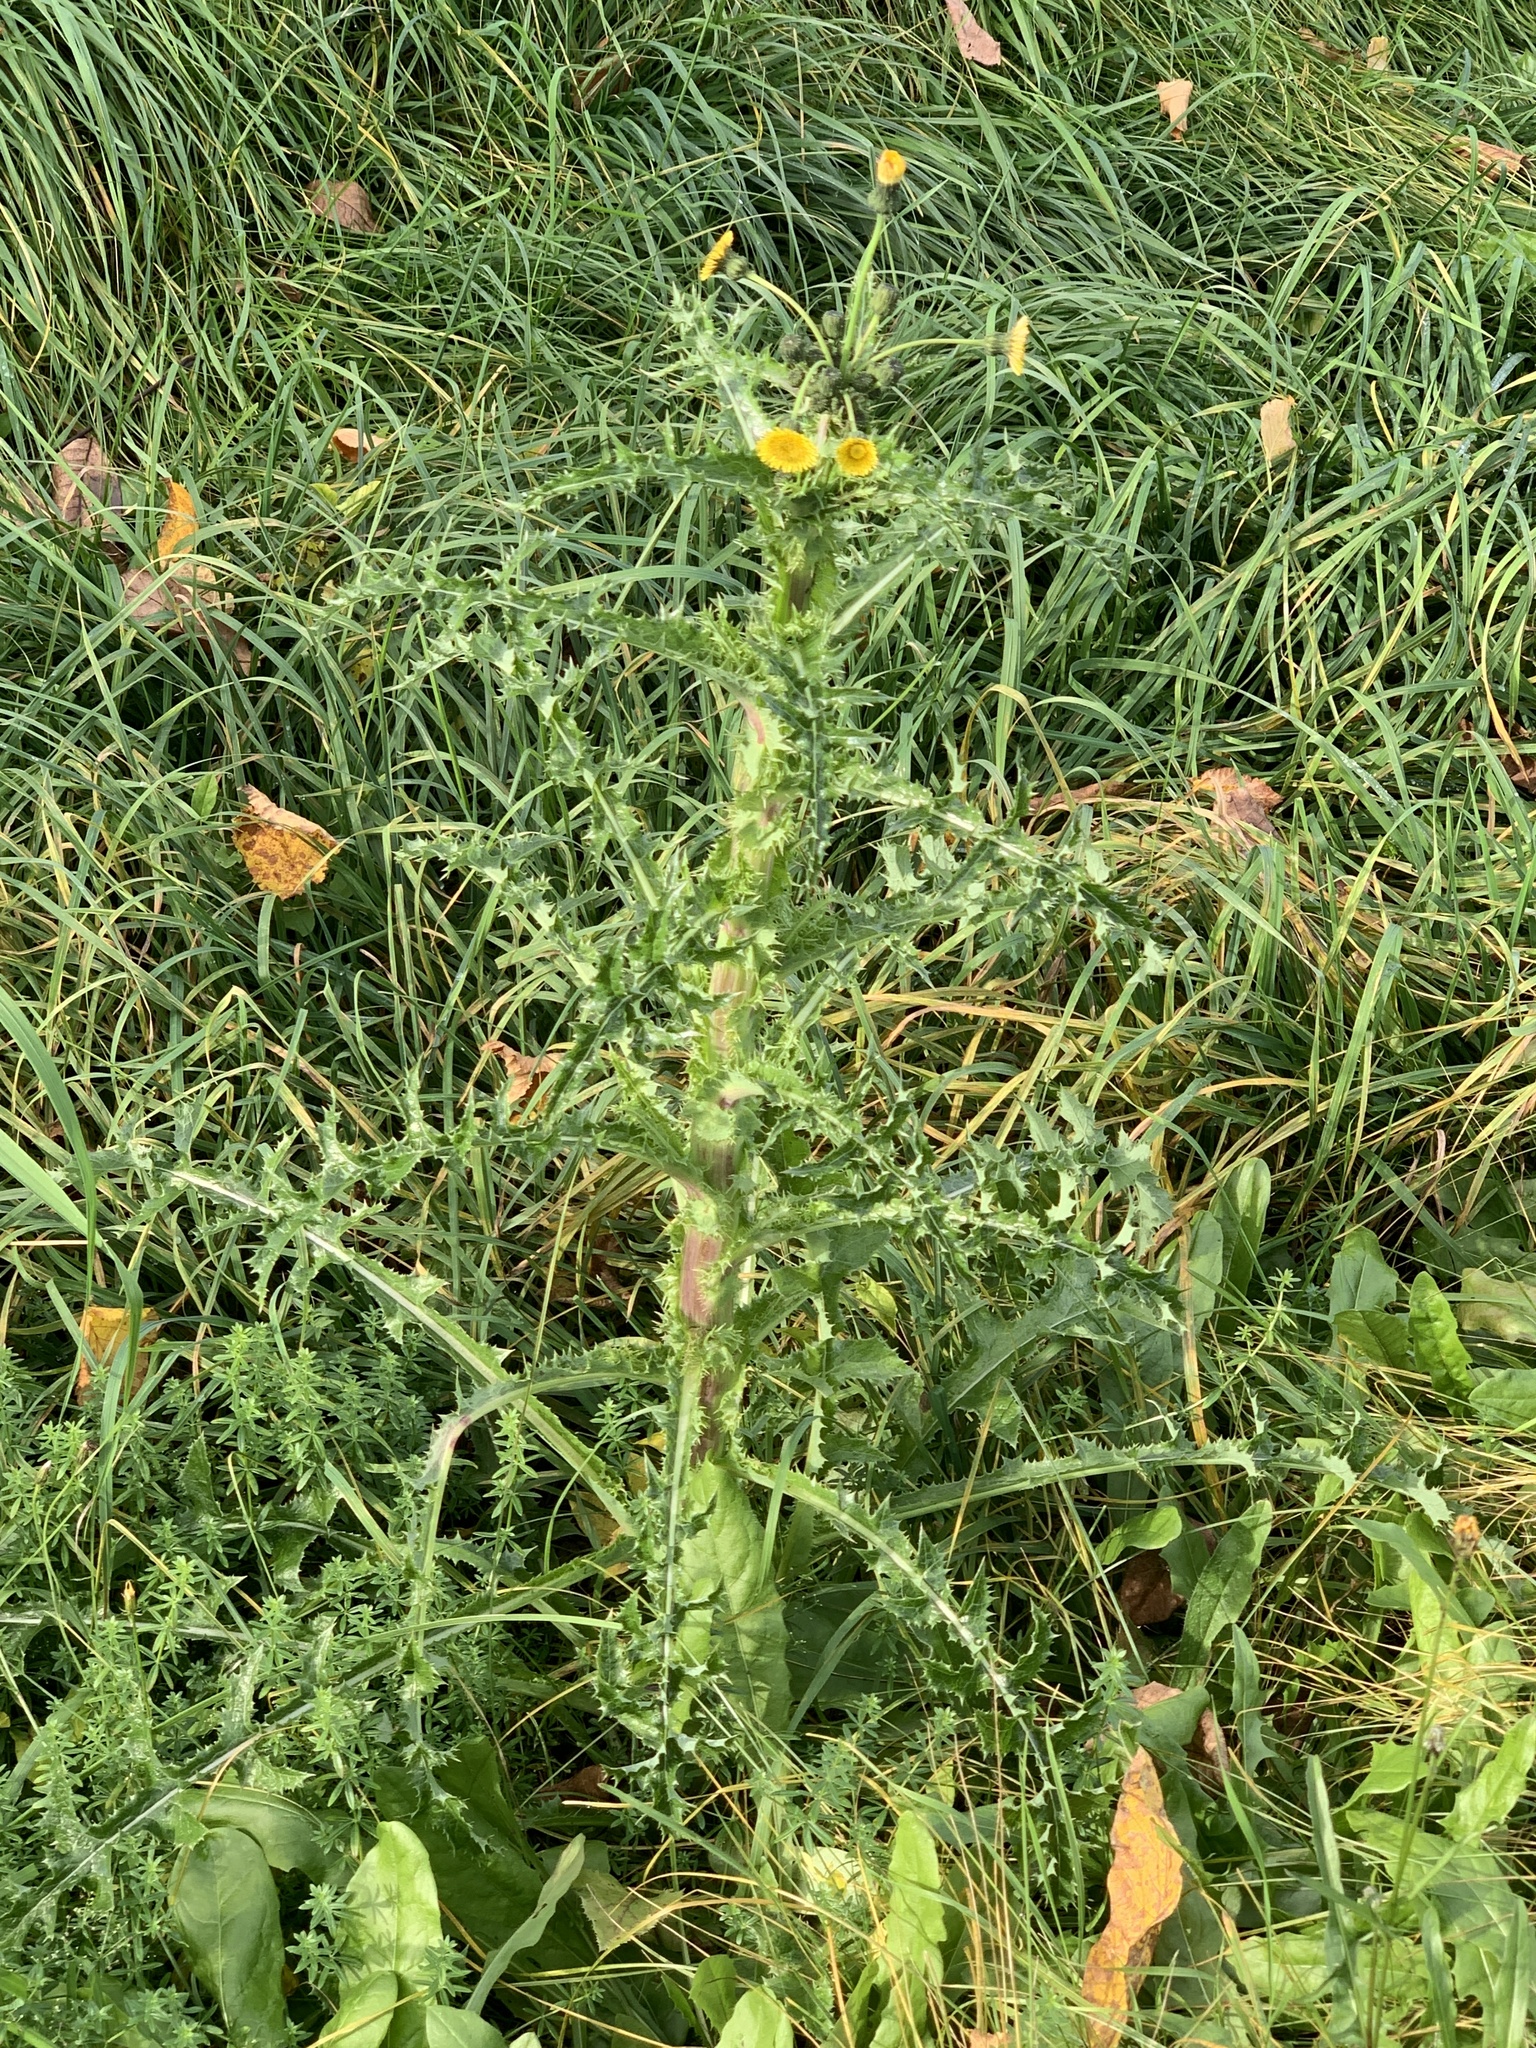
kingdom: Plantae
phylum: Tracheophyta
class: Magnoliopsida
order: Asterales
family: Asteraceae
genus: Sonchus
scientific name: Sonchus asper
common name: Prickly sow-thistle
